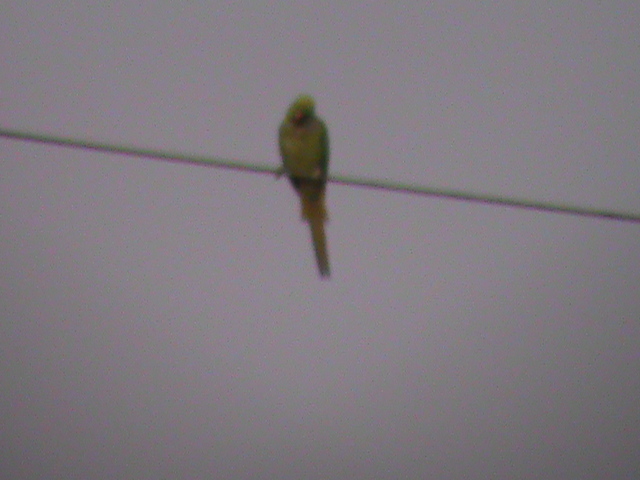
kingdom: Animalia
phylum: Chordata
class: Aves
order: Psittaciformes
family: Psittacidae
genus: Psittacula
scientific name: Psittacula krameri
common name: Rose-ringed parakeet
